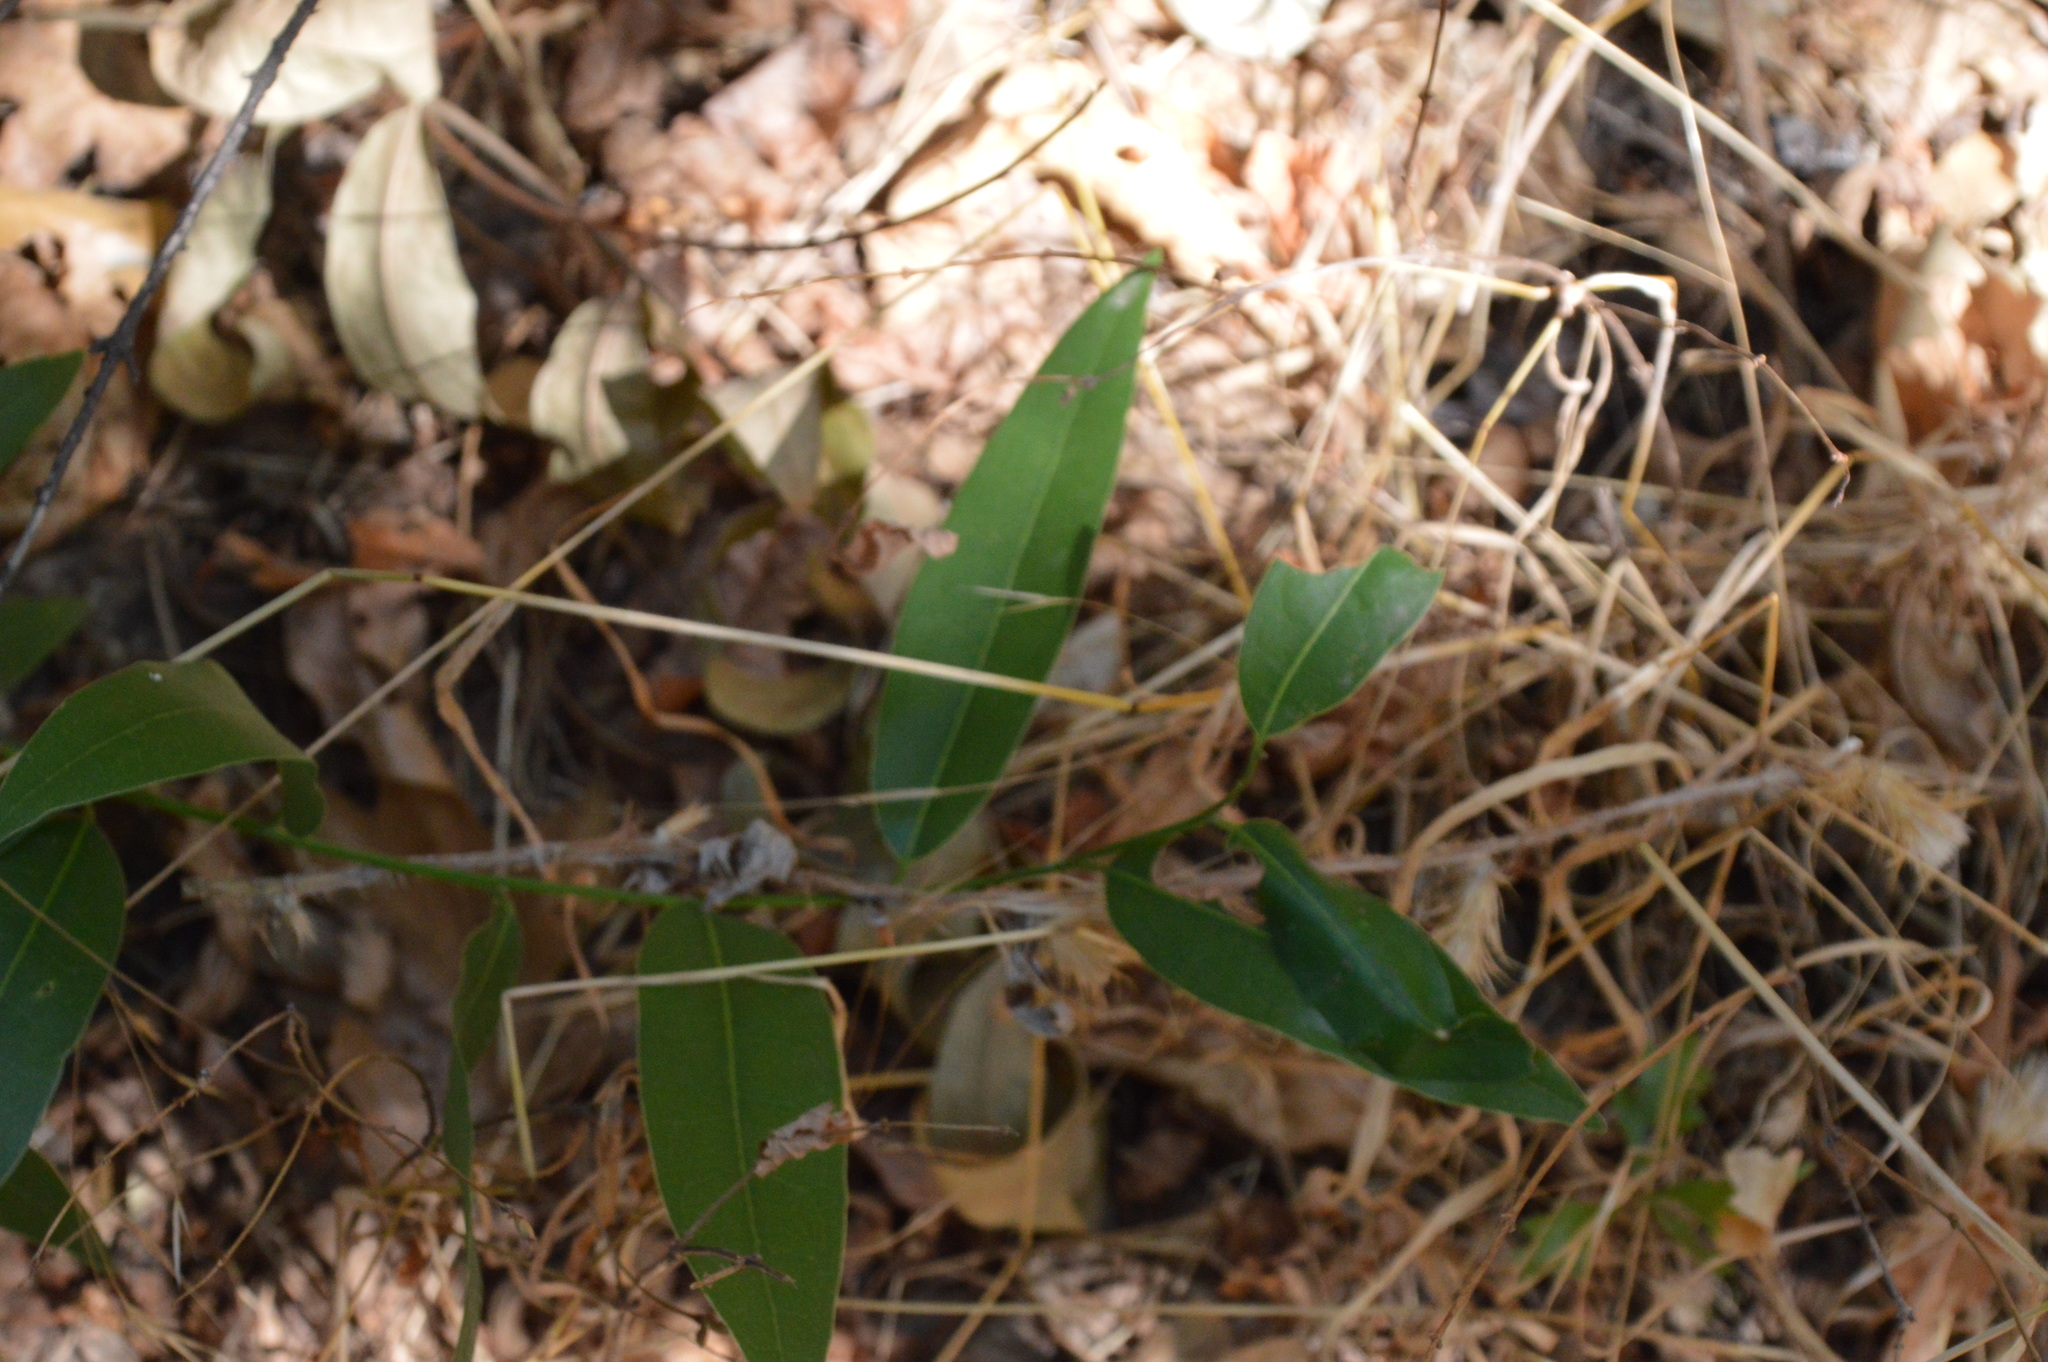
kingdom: Plantae
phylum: Tracheophyta
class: Magnoliopsida
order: Laurales
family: Lauraceae
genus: Umbellularia
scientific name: Umbellularia californica
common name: California bay
